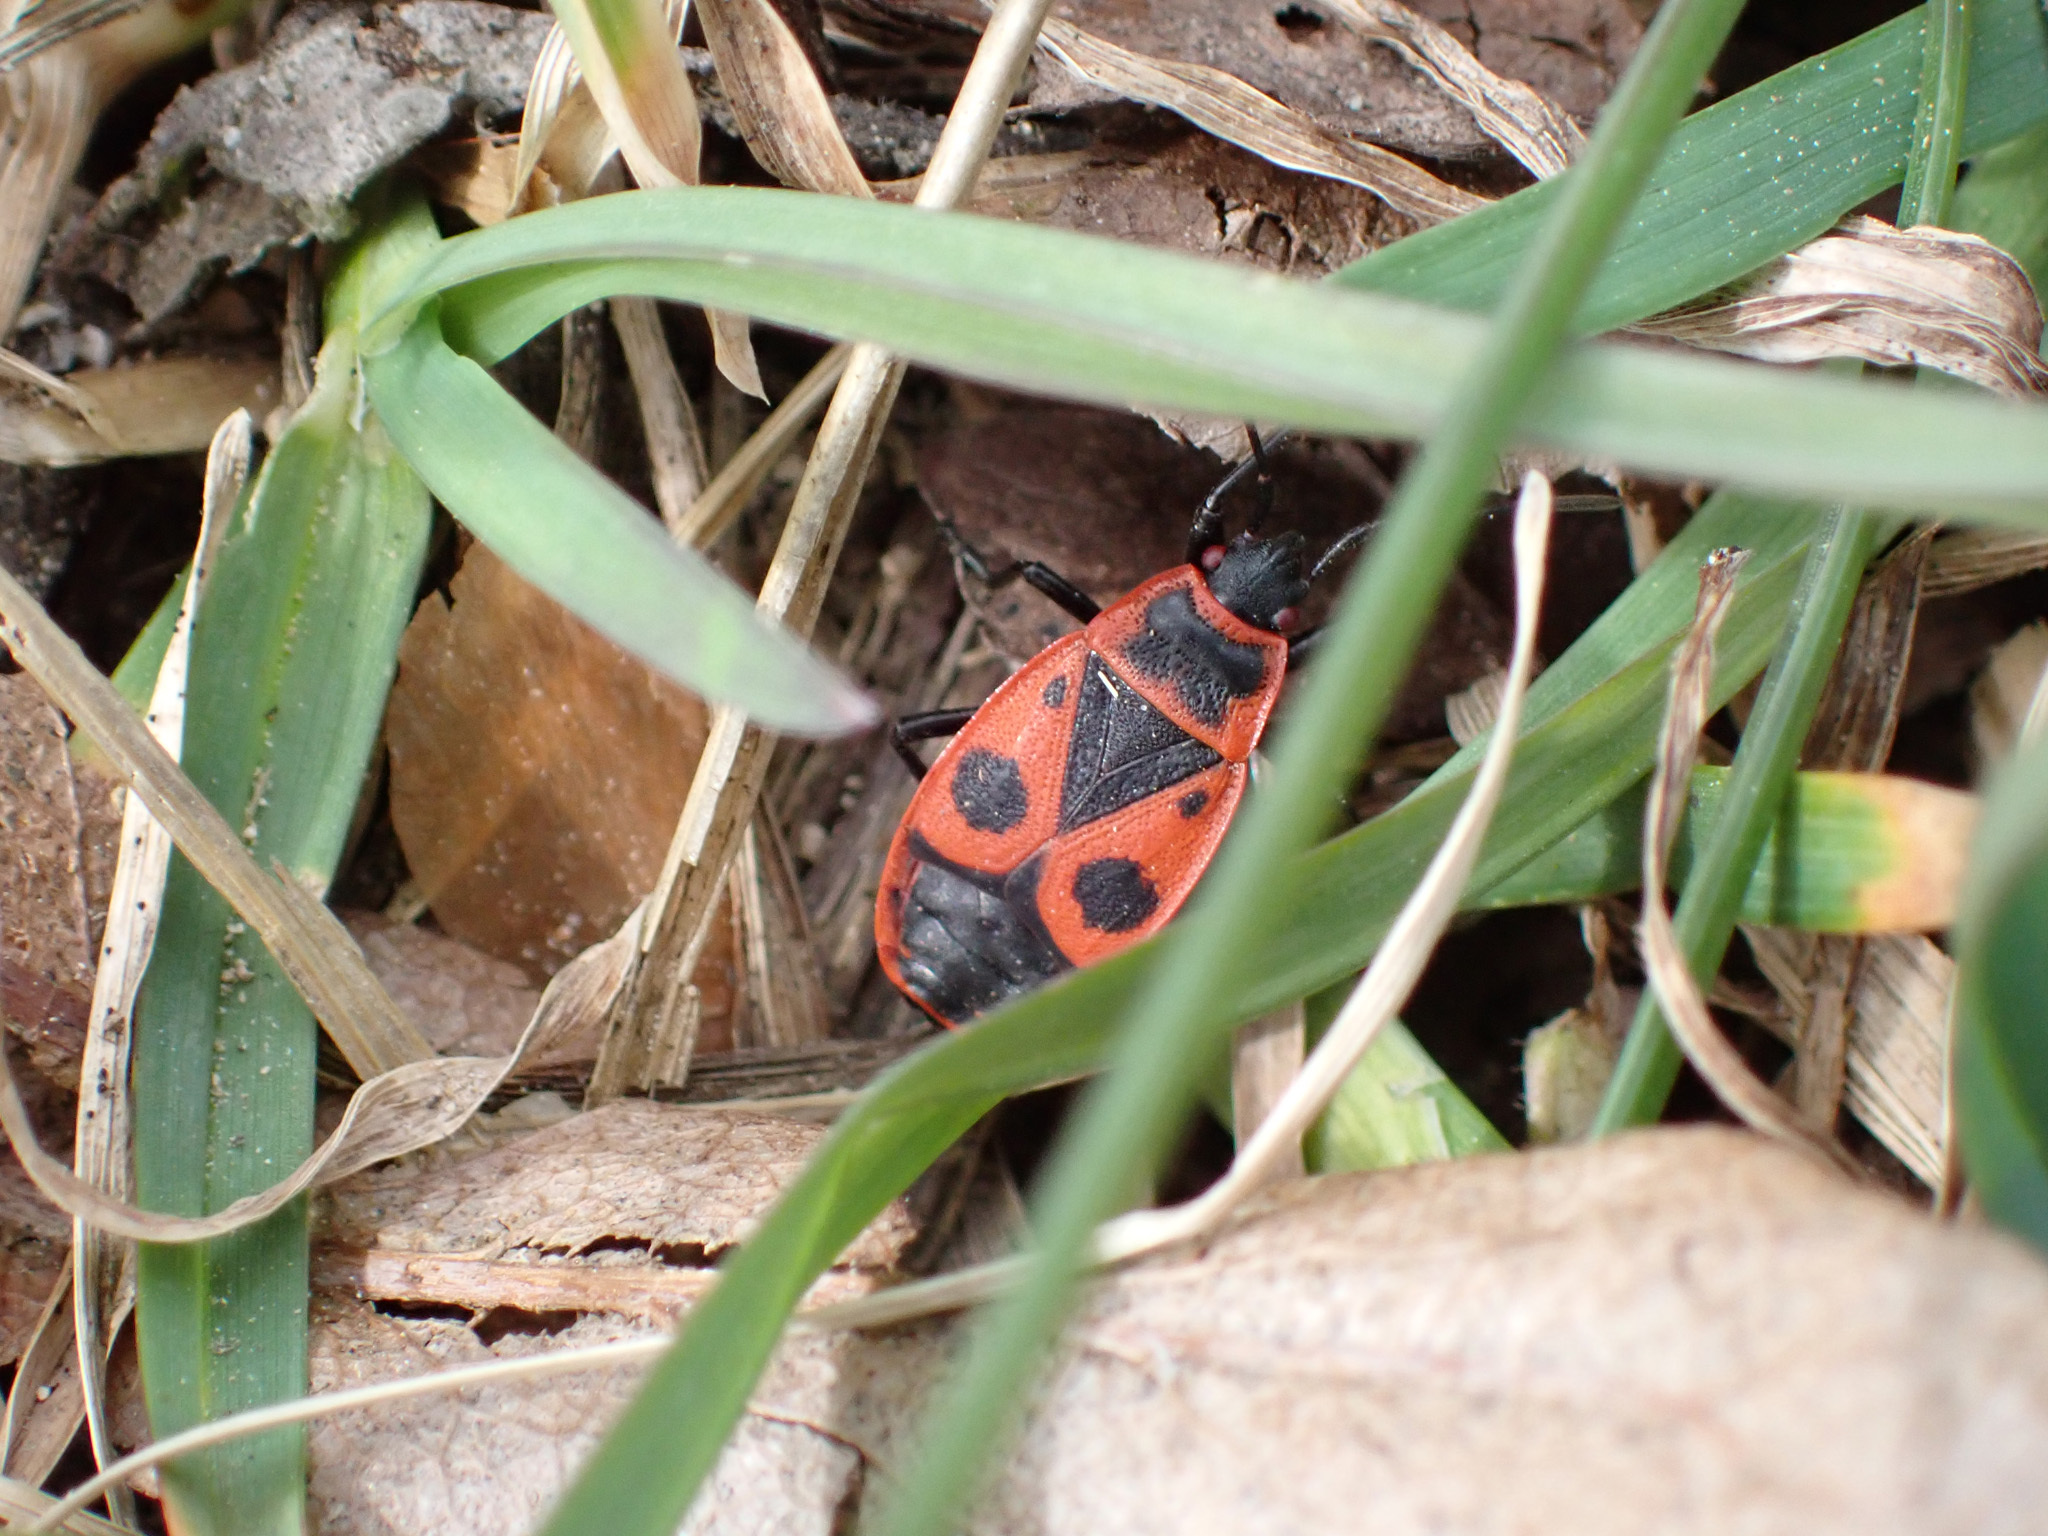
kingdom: Animalia
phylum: Arthropoda
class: Insecta
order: Hemiptera
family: Pyrrhocoridae
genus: Pyrrhocoris
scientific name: Pyrrhocoris apterus
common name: Firebug
